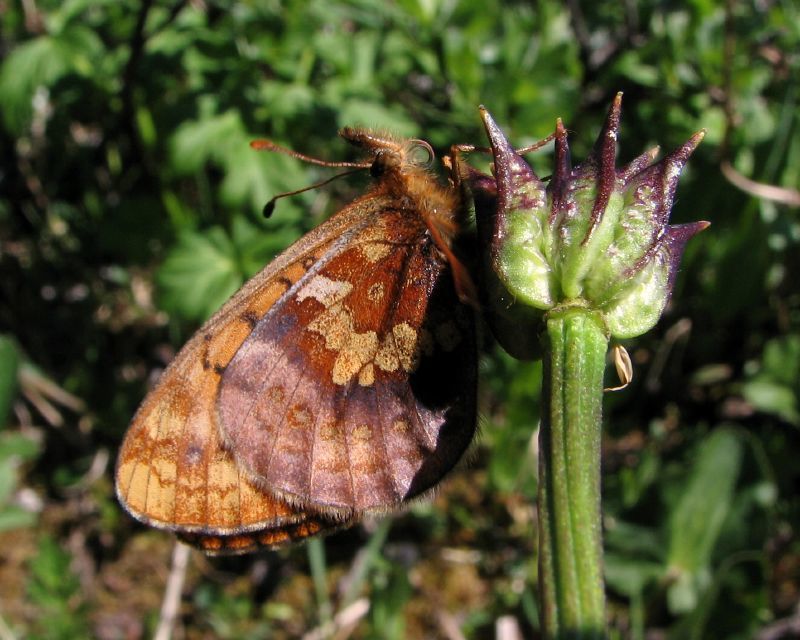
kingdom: Animalia
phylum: Arthropoda
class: Insecta
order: Lepidoptera
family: Nymphalidae
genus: Boloria
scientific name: Boloria epithore
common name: Pacific fritillary
